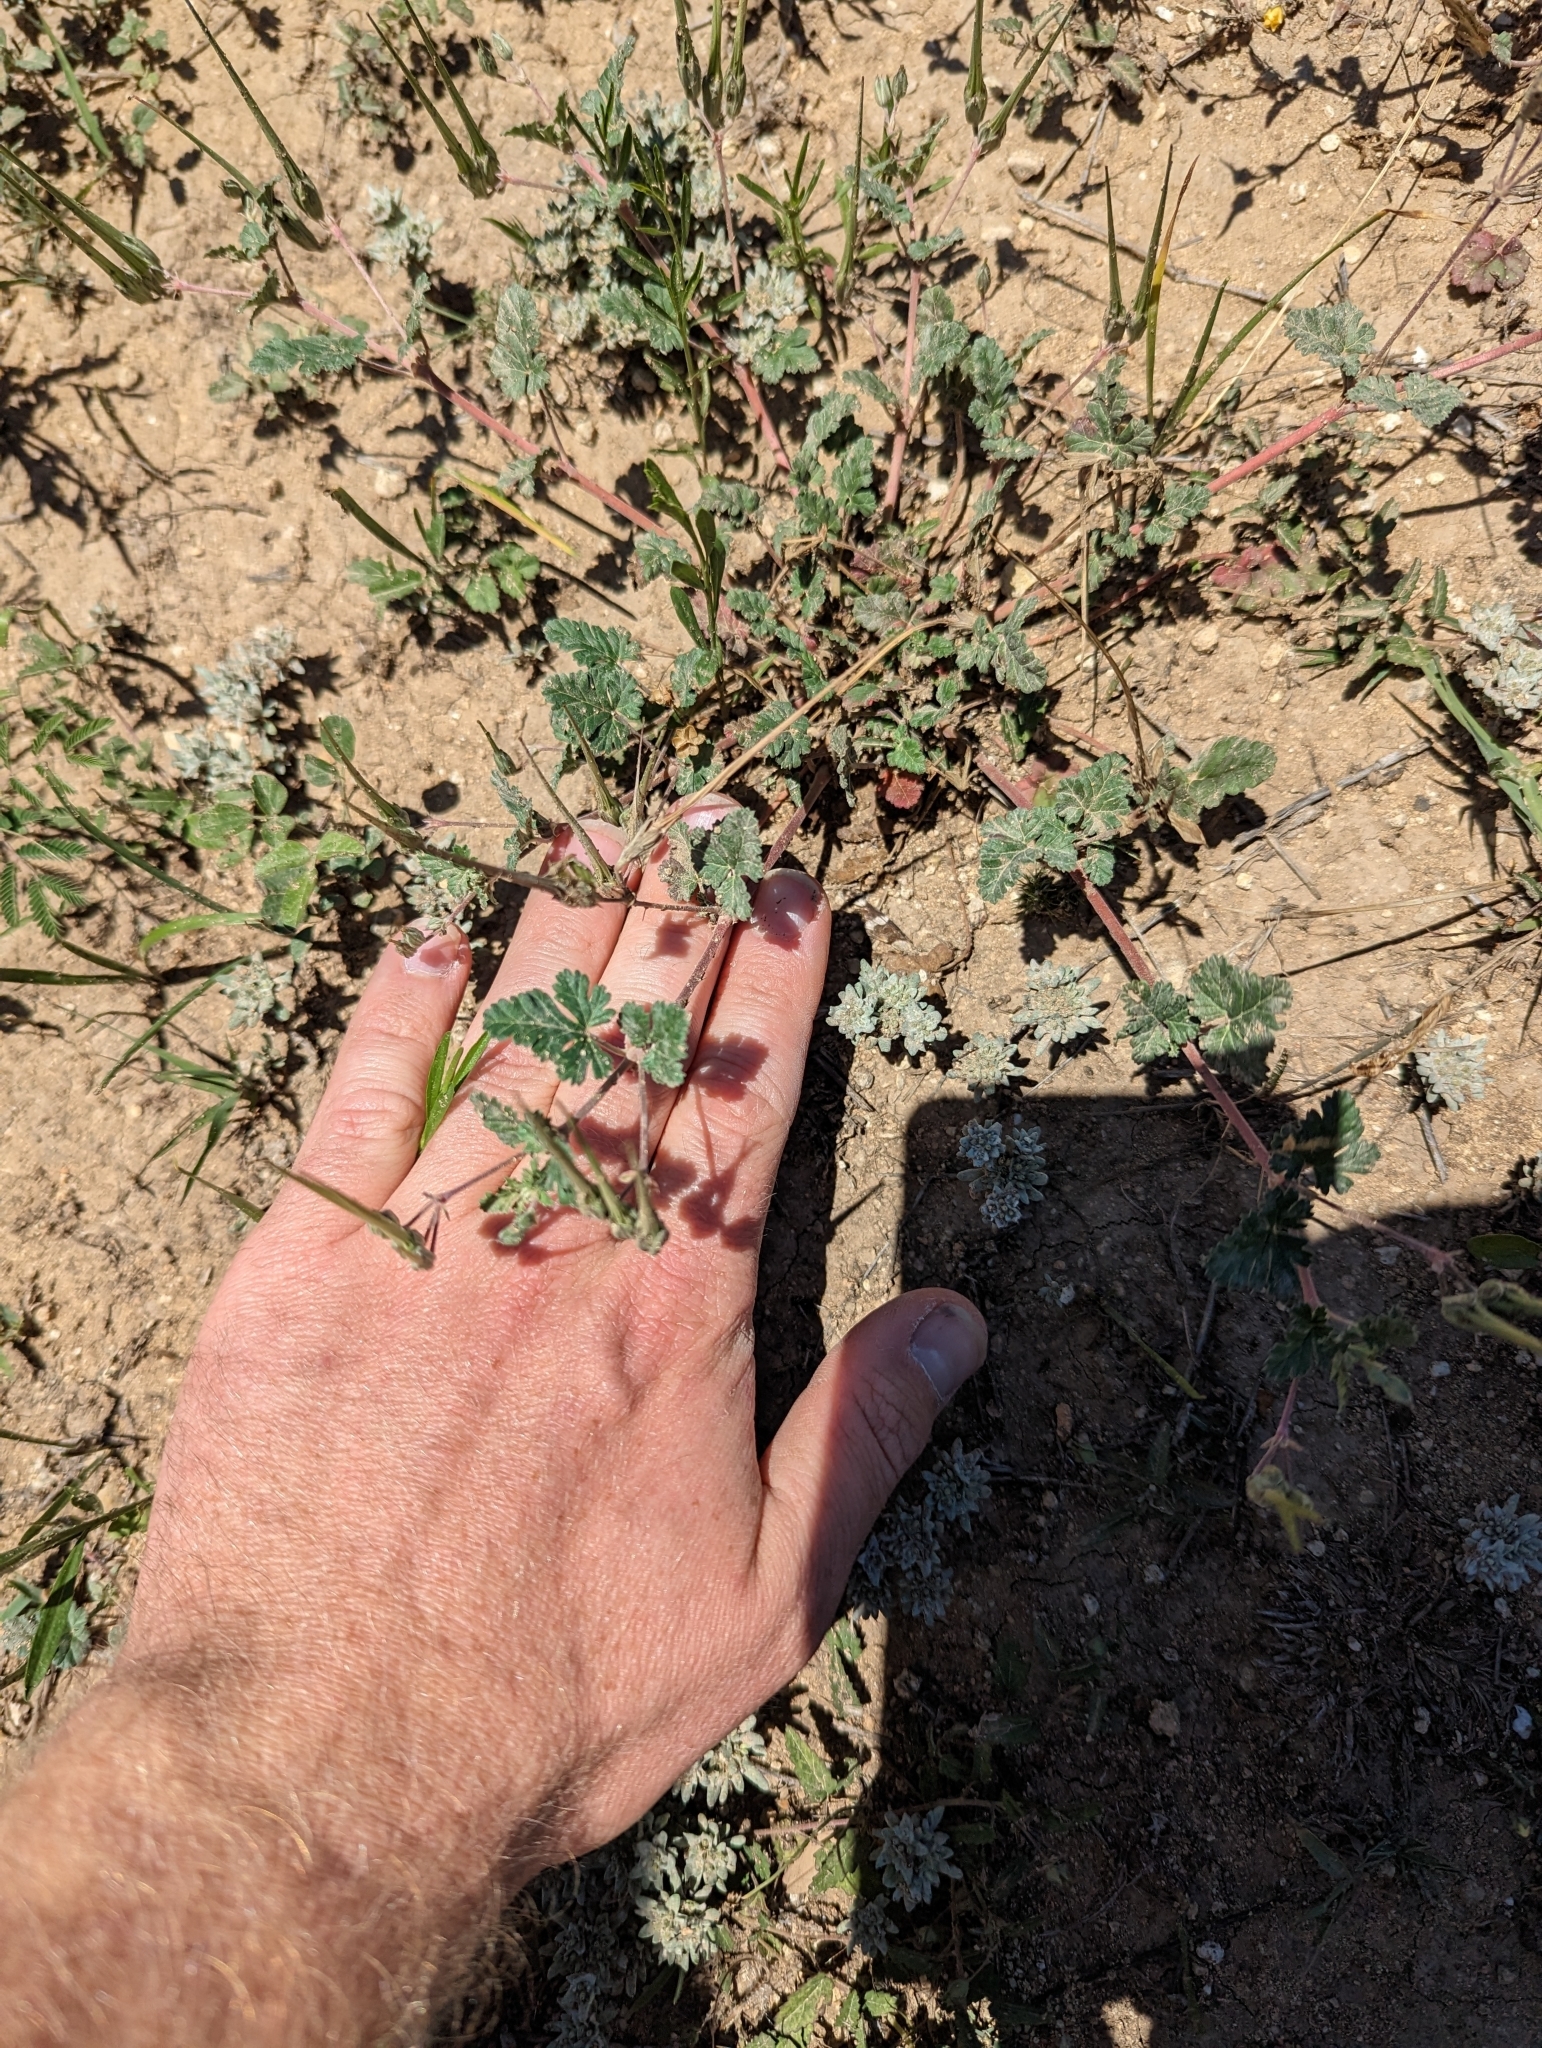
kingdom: Plantae
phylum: Tracheophyta
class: Magnoliopsida
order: Geraniales
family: Geraniaceae
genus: Erodium
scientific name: Erodium texanum
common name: Texas stork's-bill
